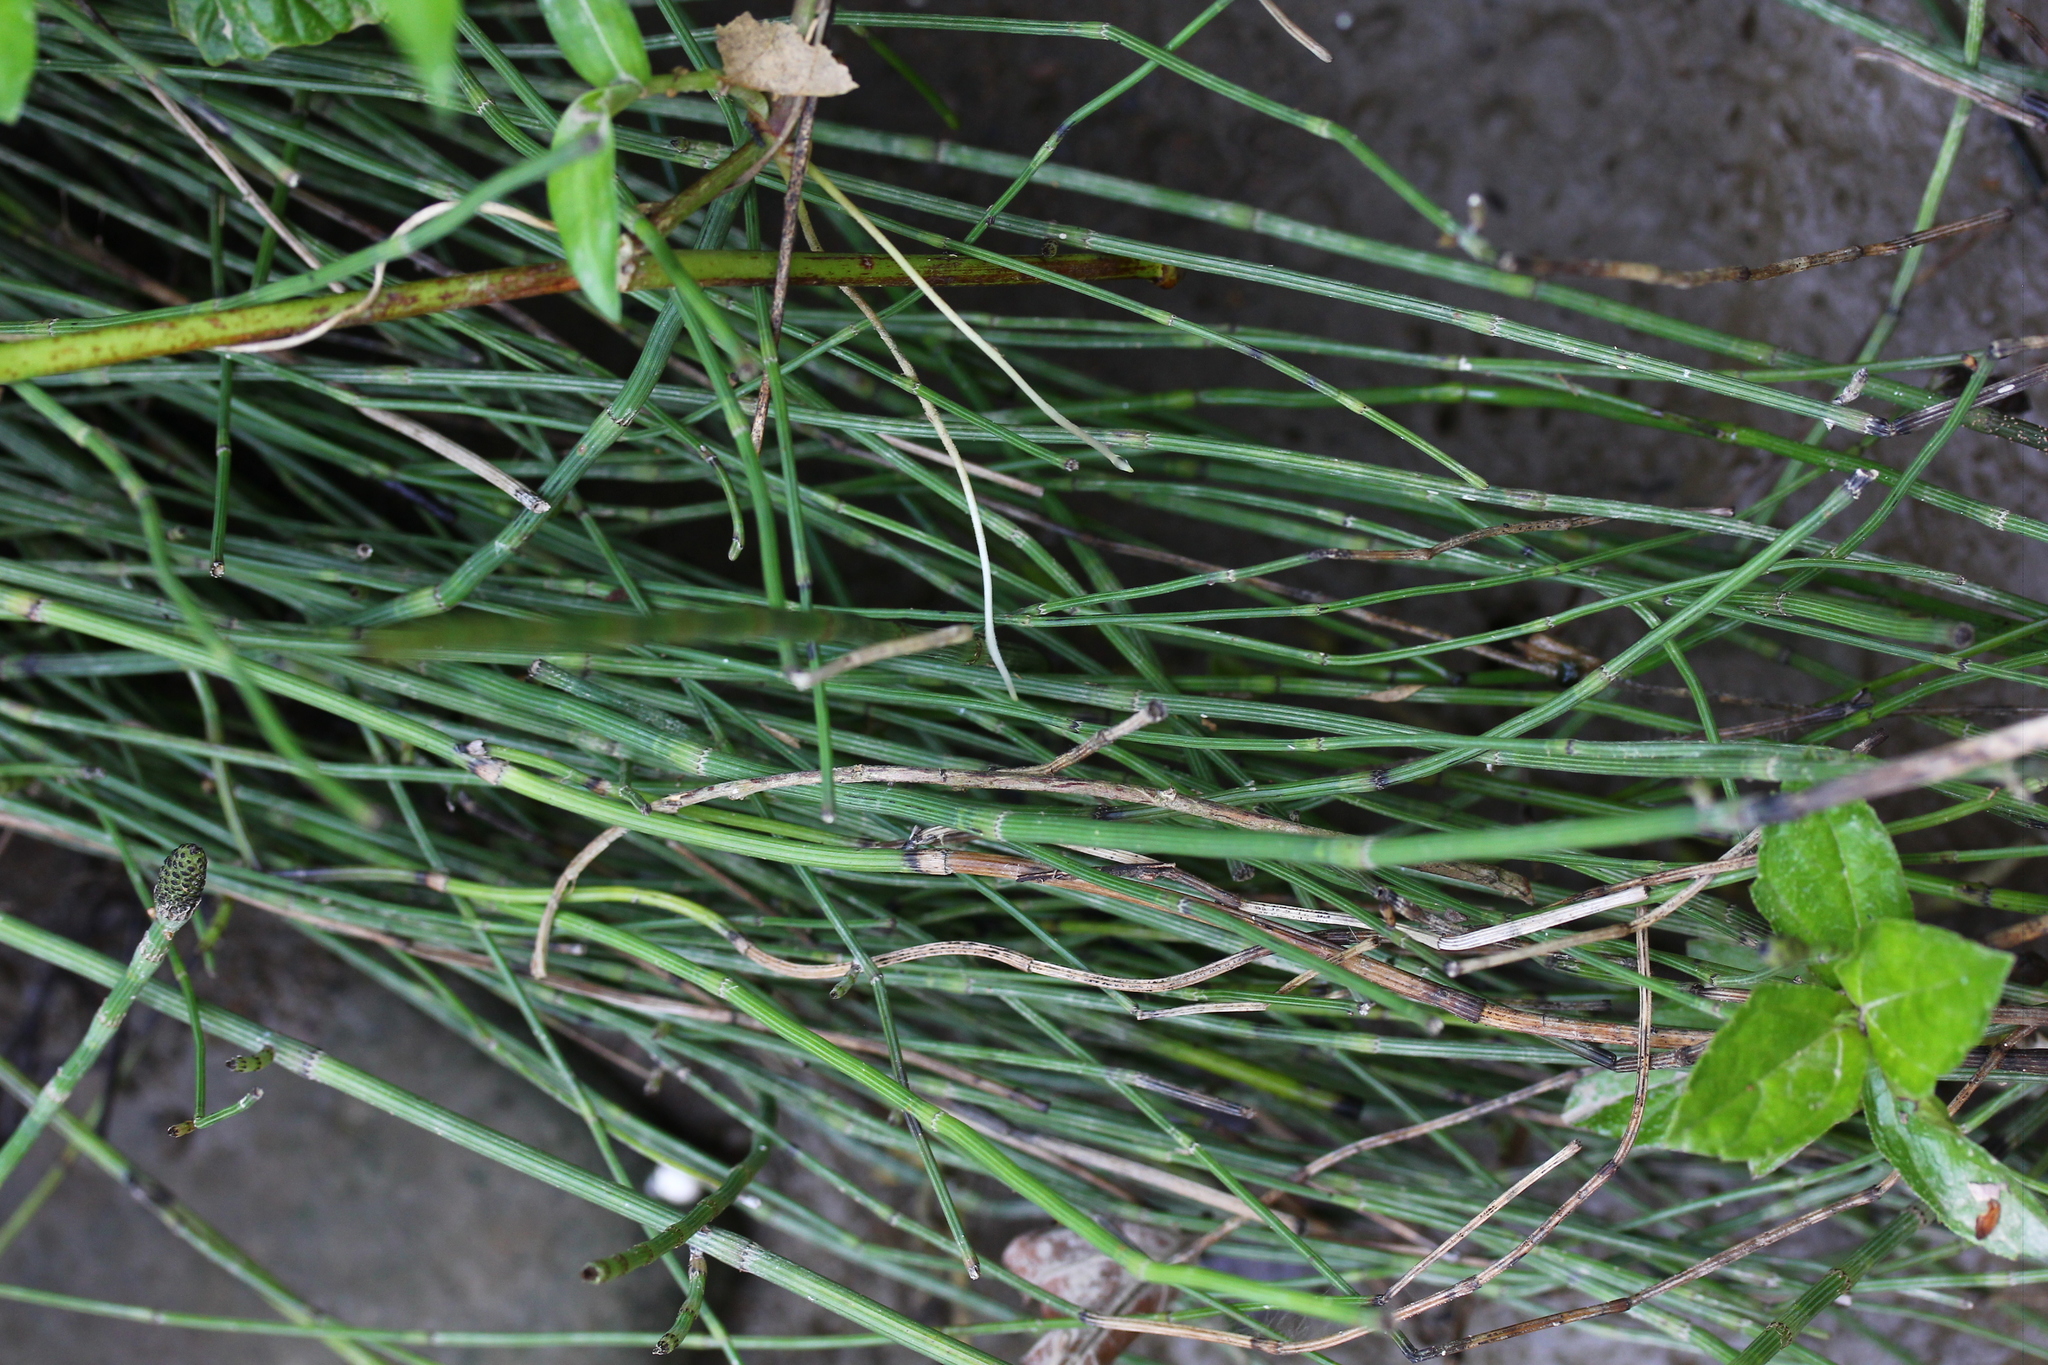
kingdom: Plantae
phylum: Tracheophyta
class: Polypodiopsida
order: Equisetales
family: Equisetaceae
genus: Equisetum
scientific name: Equisetum ramosissimum
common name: Branched horsetail
